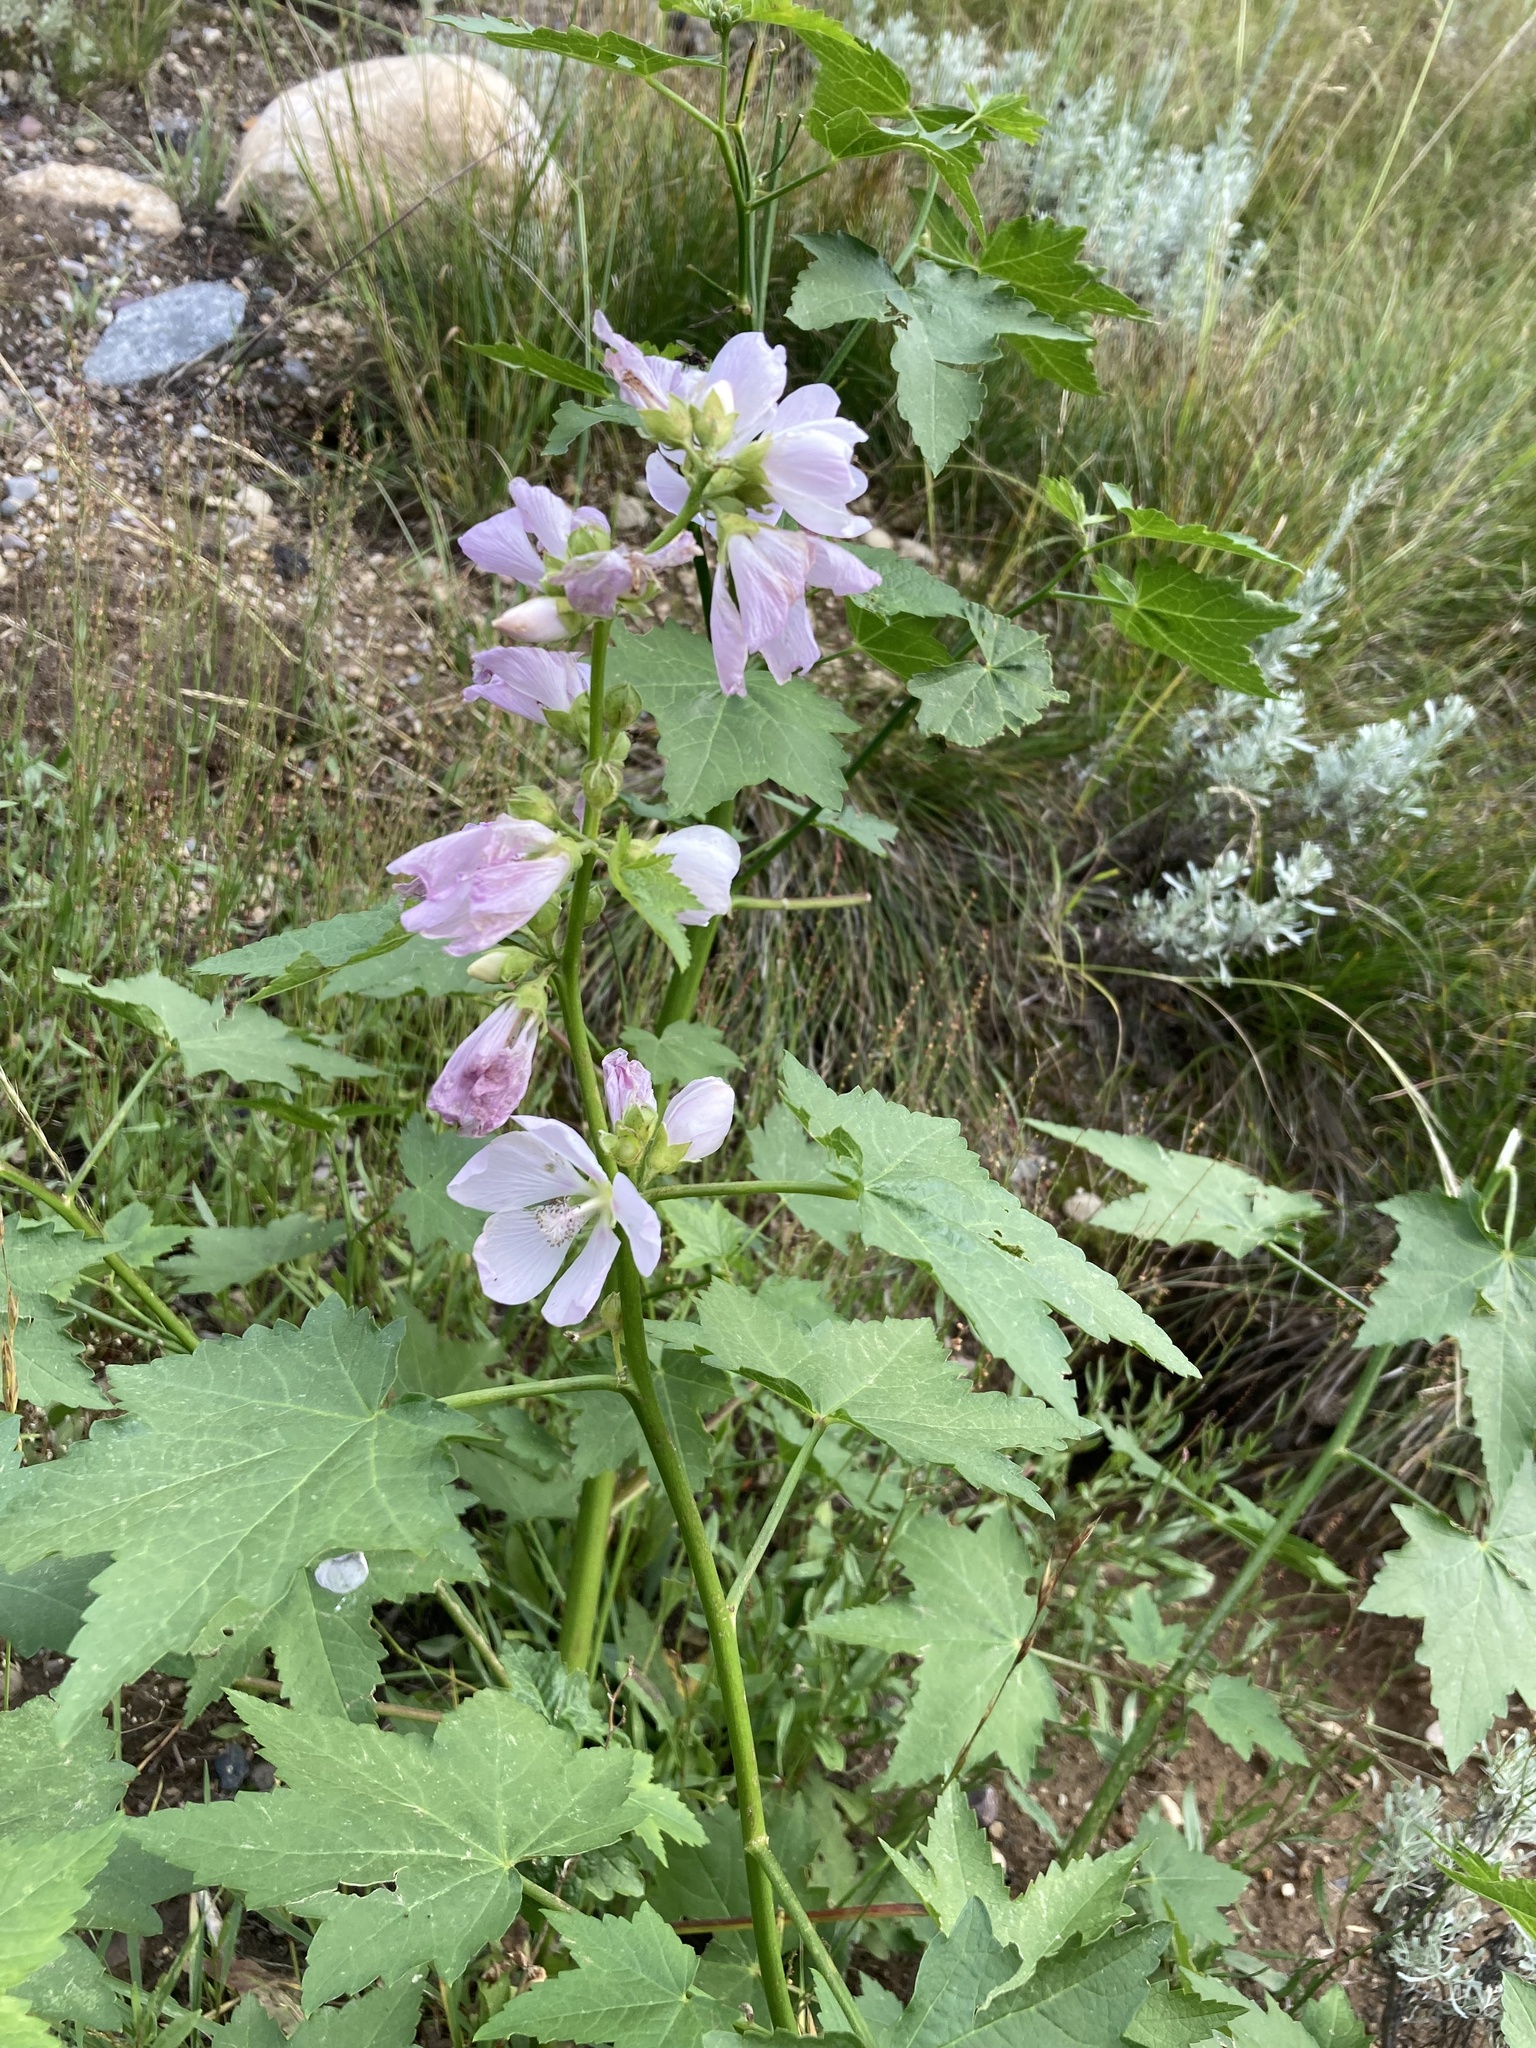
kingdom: Plantae
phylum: Tracheophyta
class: Magnoliopsida
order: Malvales
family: Malvaceae
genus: Iliamna
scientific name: Iliamna rivularis
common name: Wild hollyhock
